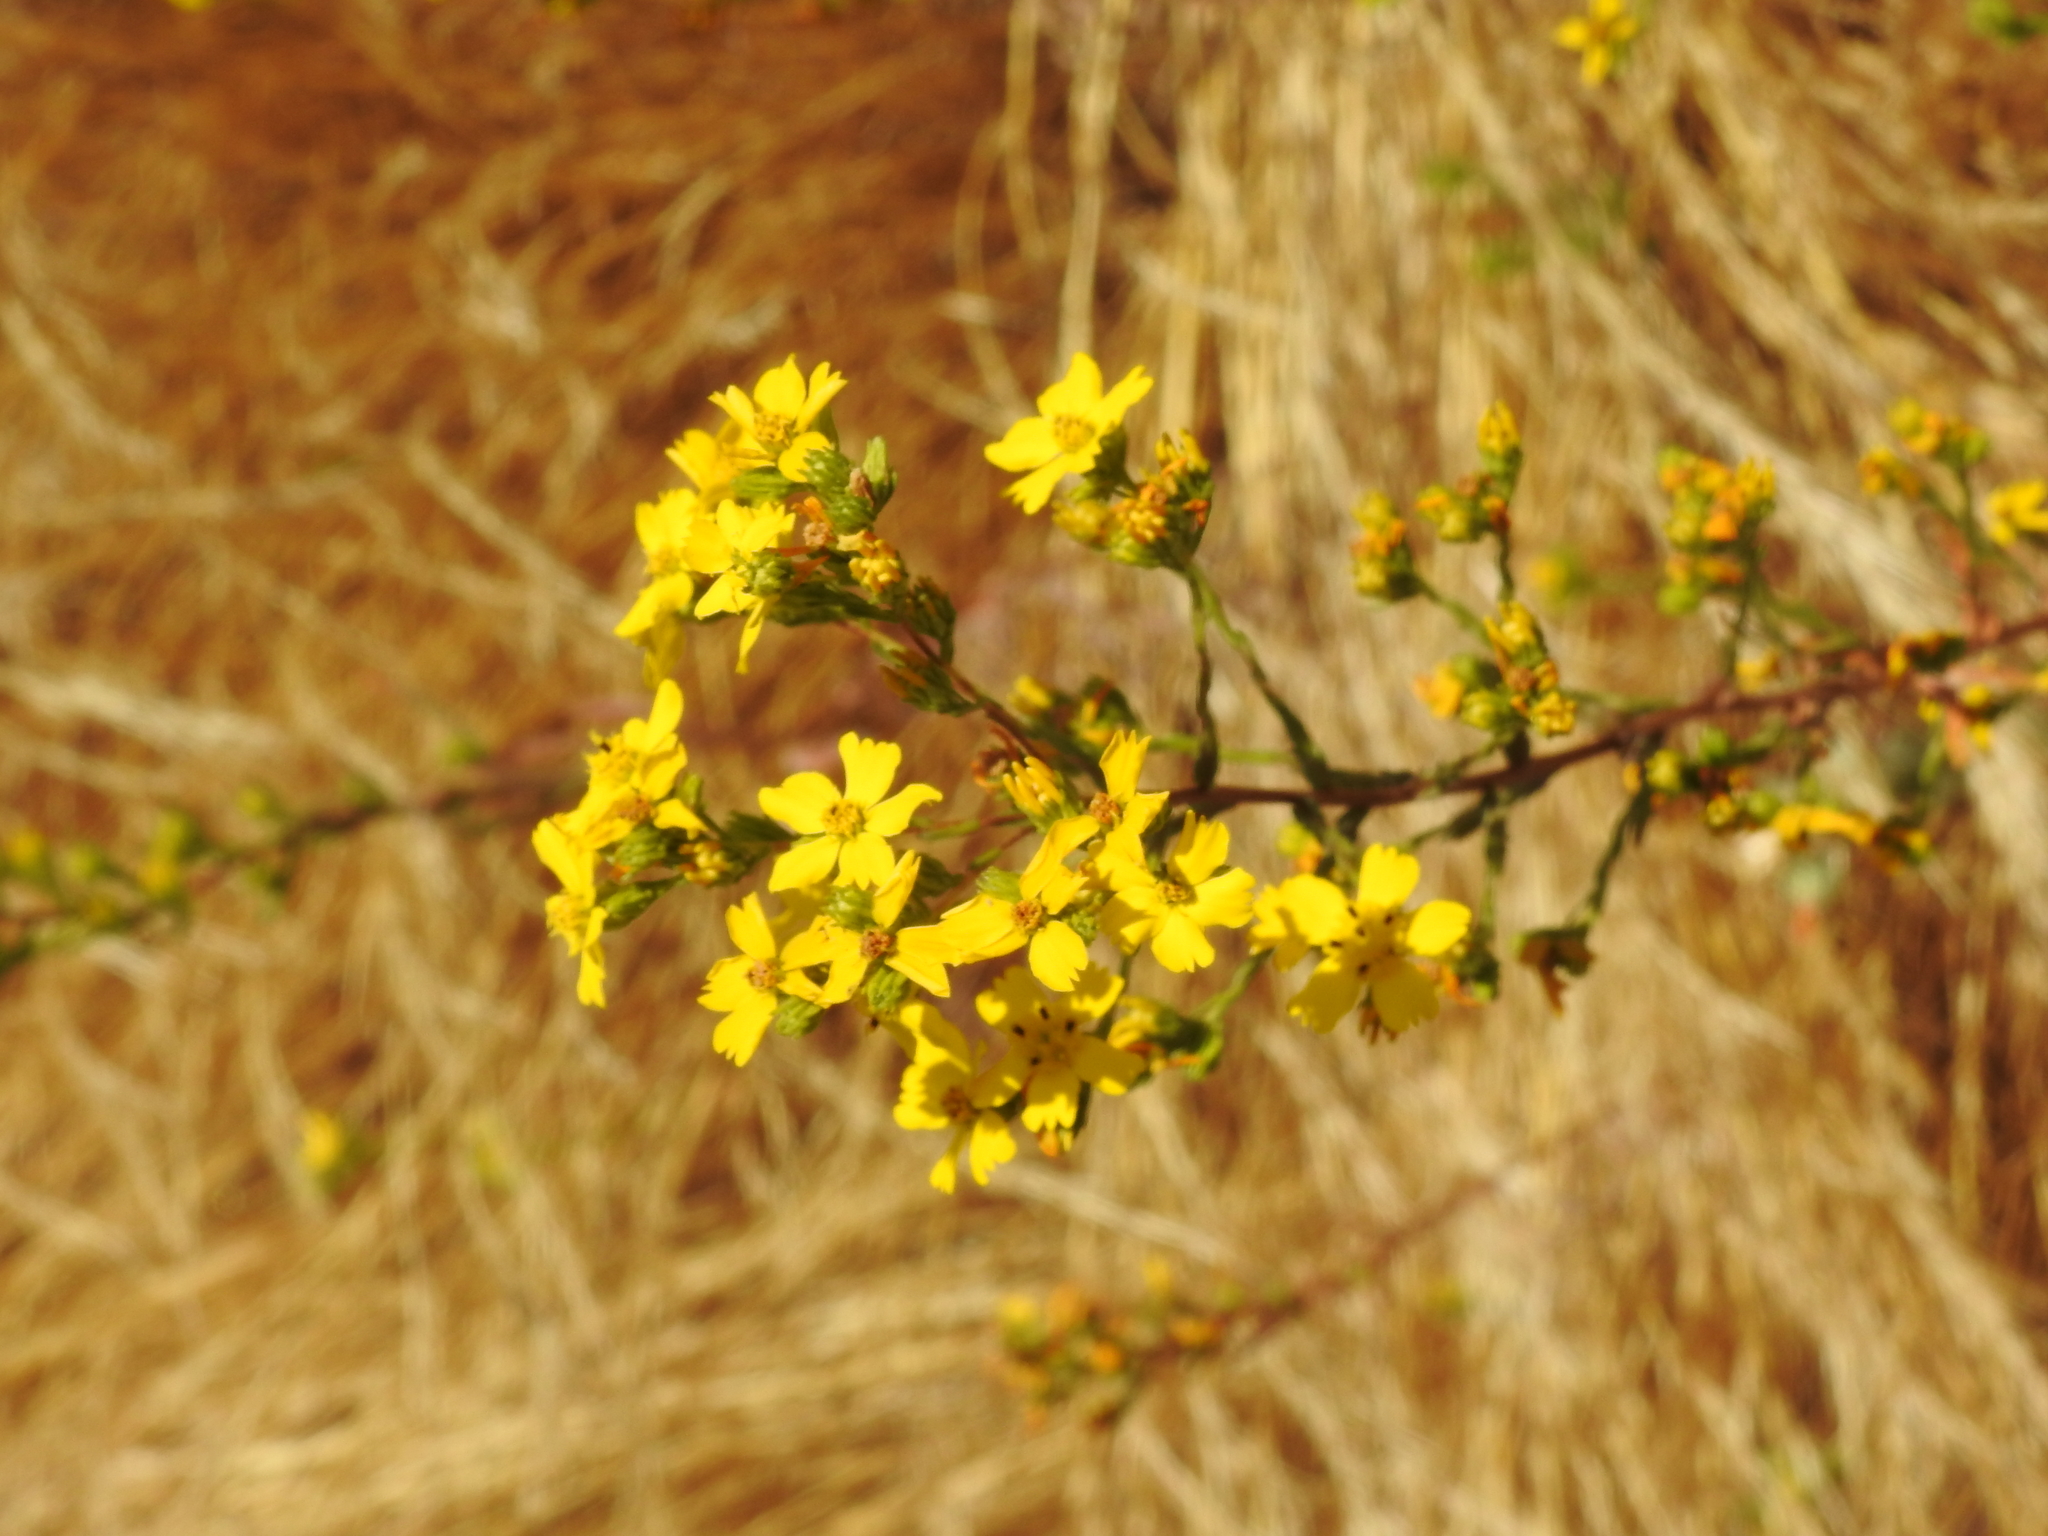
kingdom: Plantae
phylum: Tracheophyta
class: Magnoliopsida
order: Asterales
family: Asteraceae
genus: Deinandra
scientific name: Deinandra fasciculata
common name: Clustered tarweed
